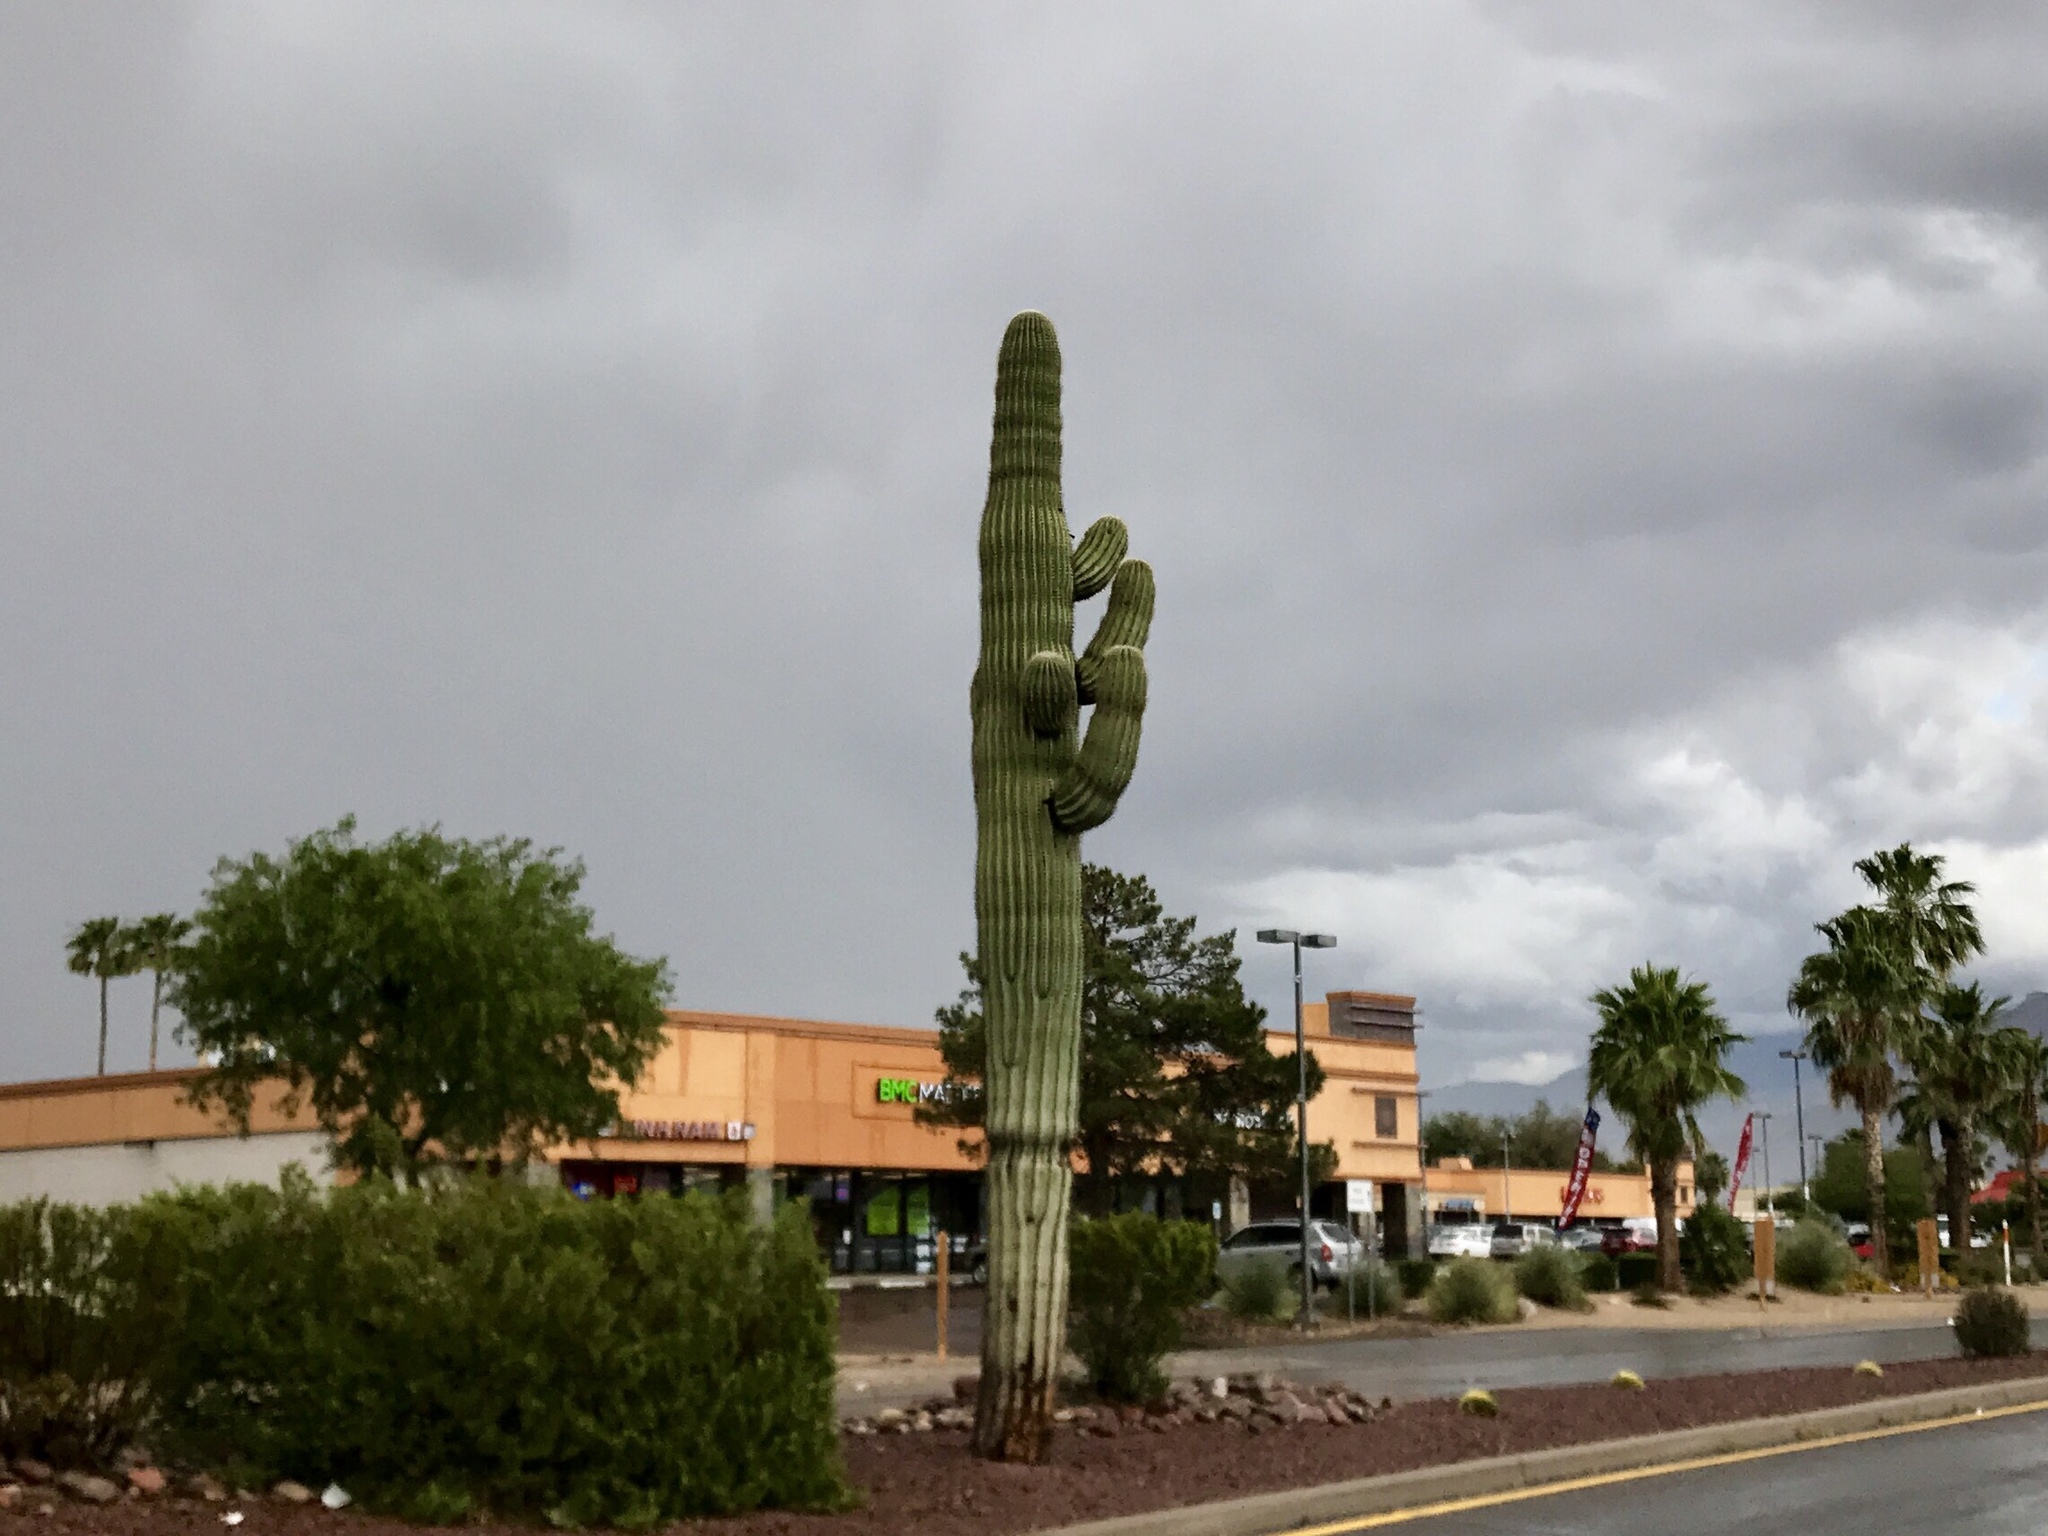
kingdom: Plantae
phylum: Tracheophyta
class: Magnoliopsida
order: Caryophyllales
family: Cactaceae
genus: Carnegiea
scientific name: Carnegiea gigantea
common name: Saguaro
